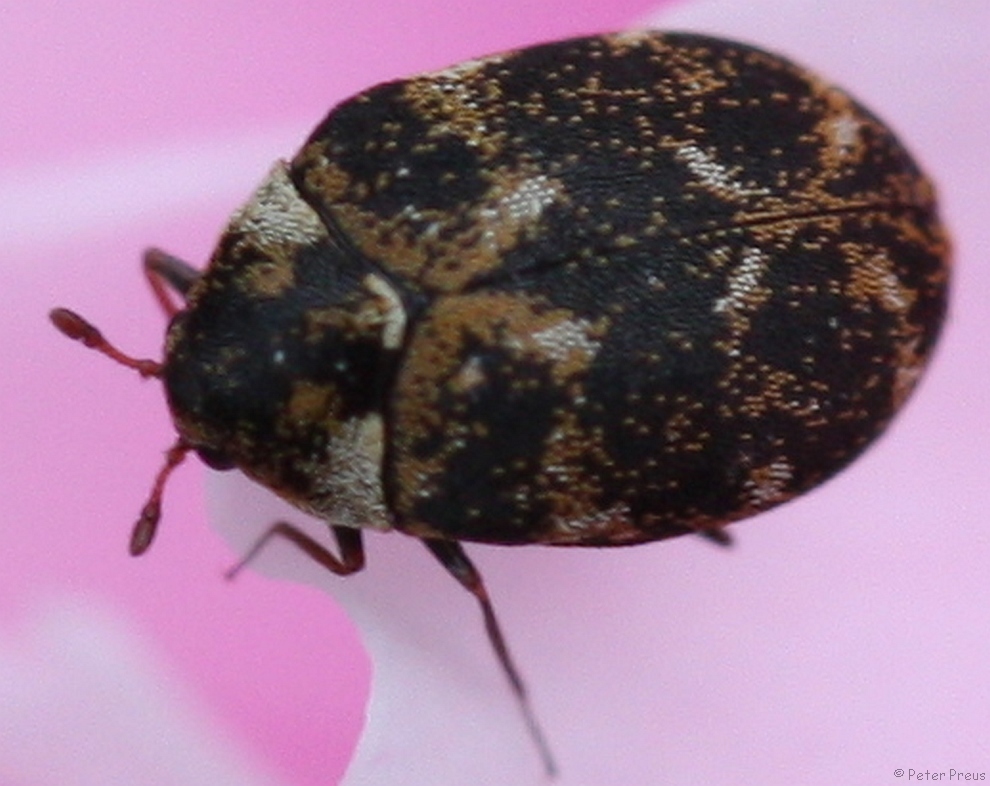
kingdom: Animalia
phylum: Arthropoda
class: Insecta
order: Coleoptera
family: Dermestidae
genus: Anthrenus
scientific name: Anthrenus museorum
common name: Museum beetle
